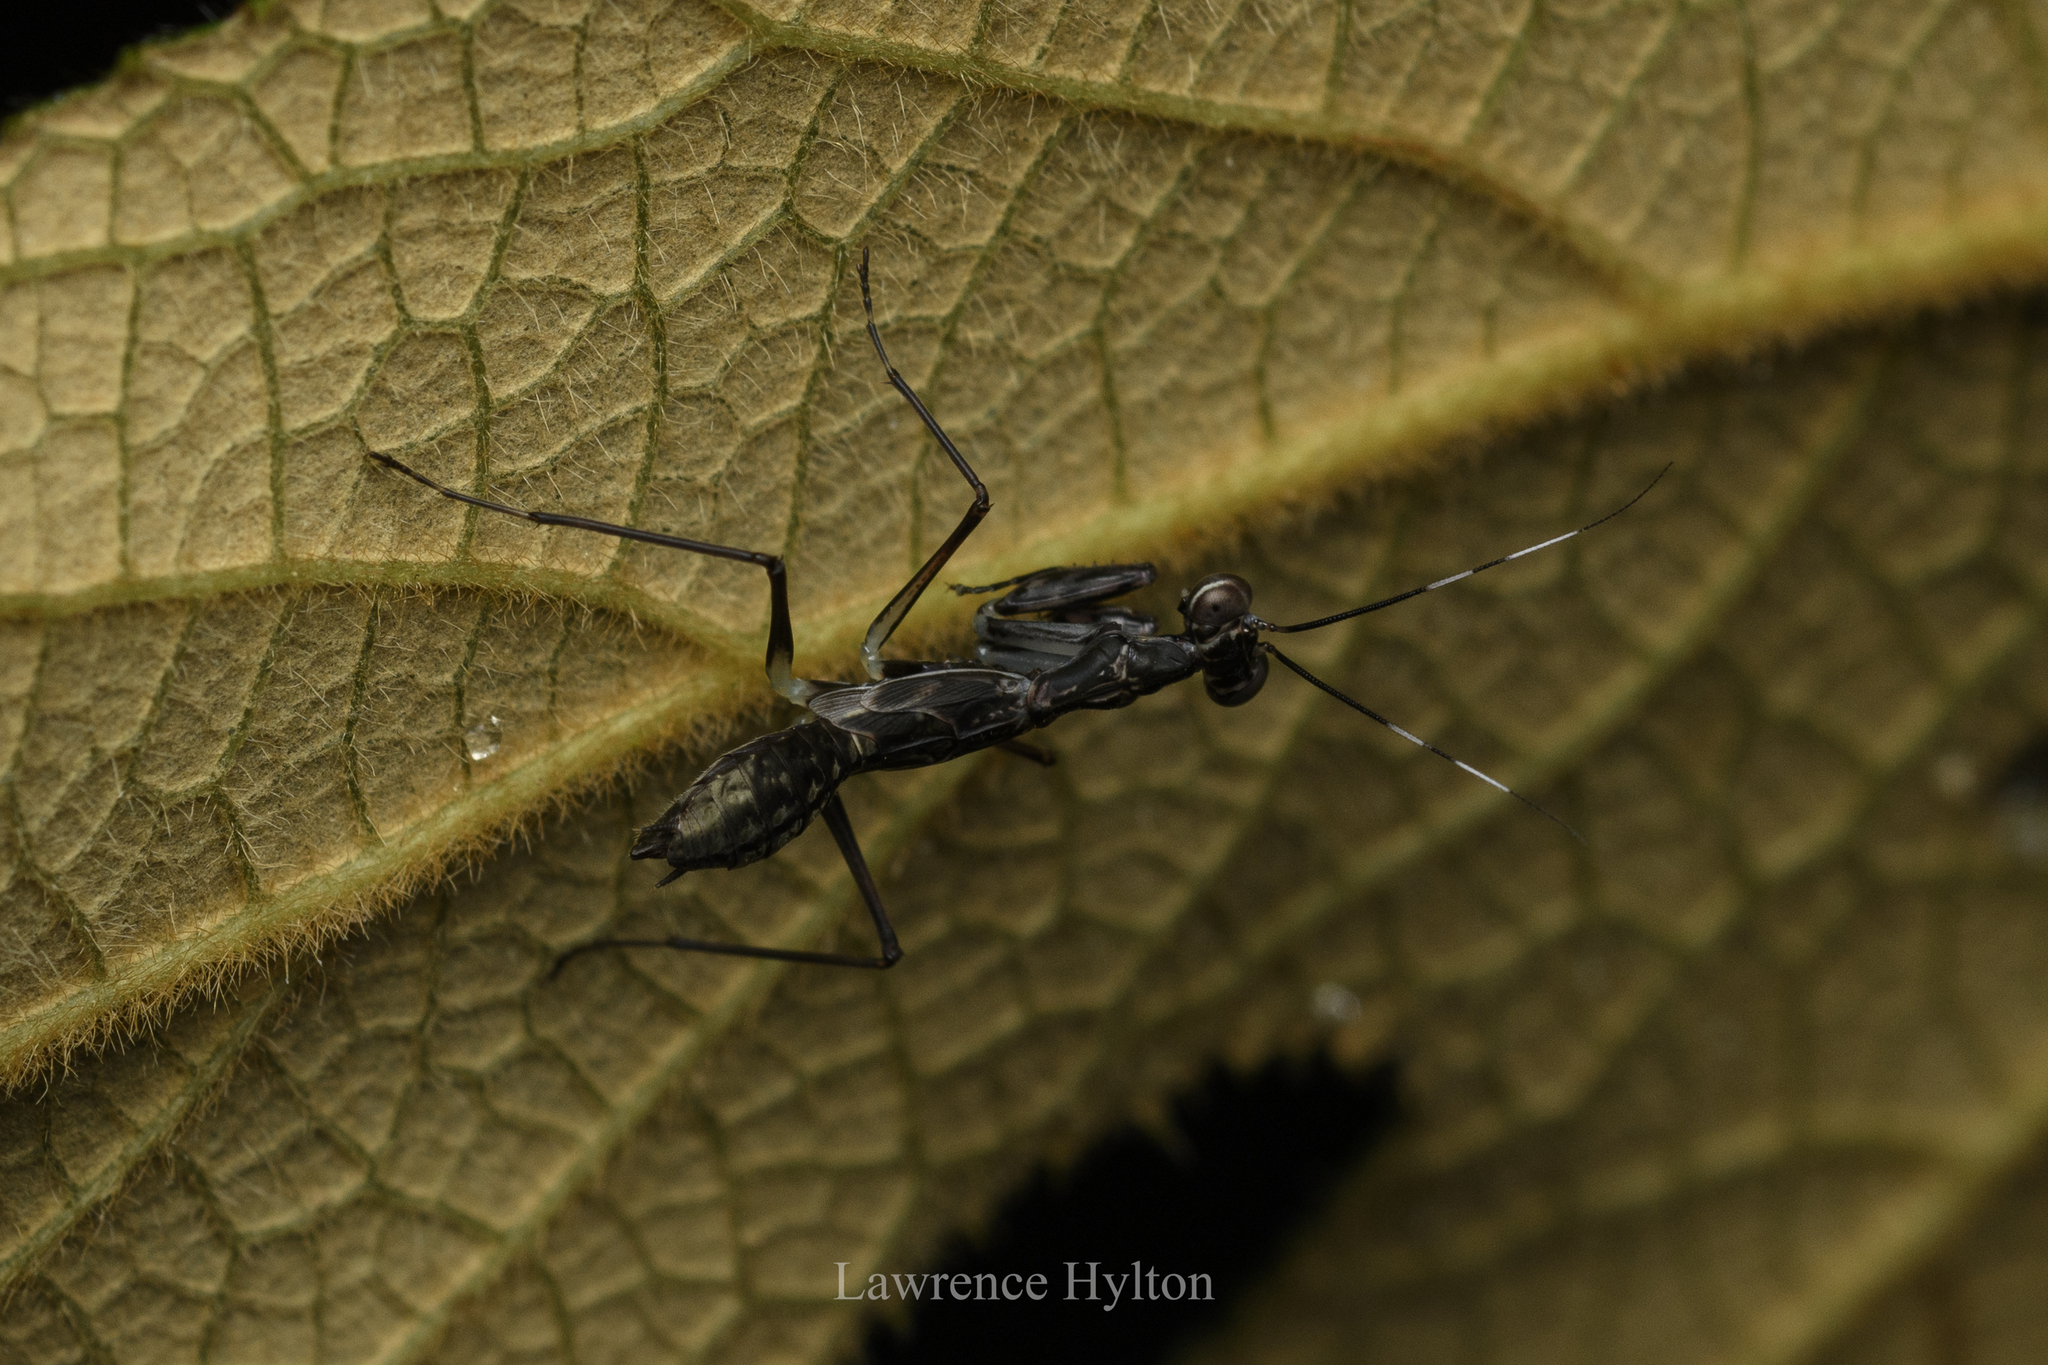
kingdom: Animalia
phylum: Arthropoda
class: Insecta
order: Mantodea
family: Gonypetidae
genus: Spilomantis
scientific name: Spilomantis occipitalis
